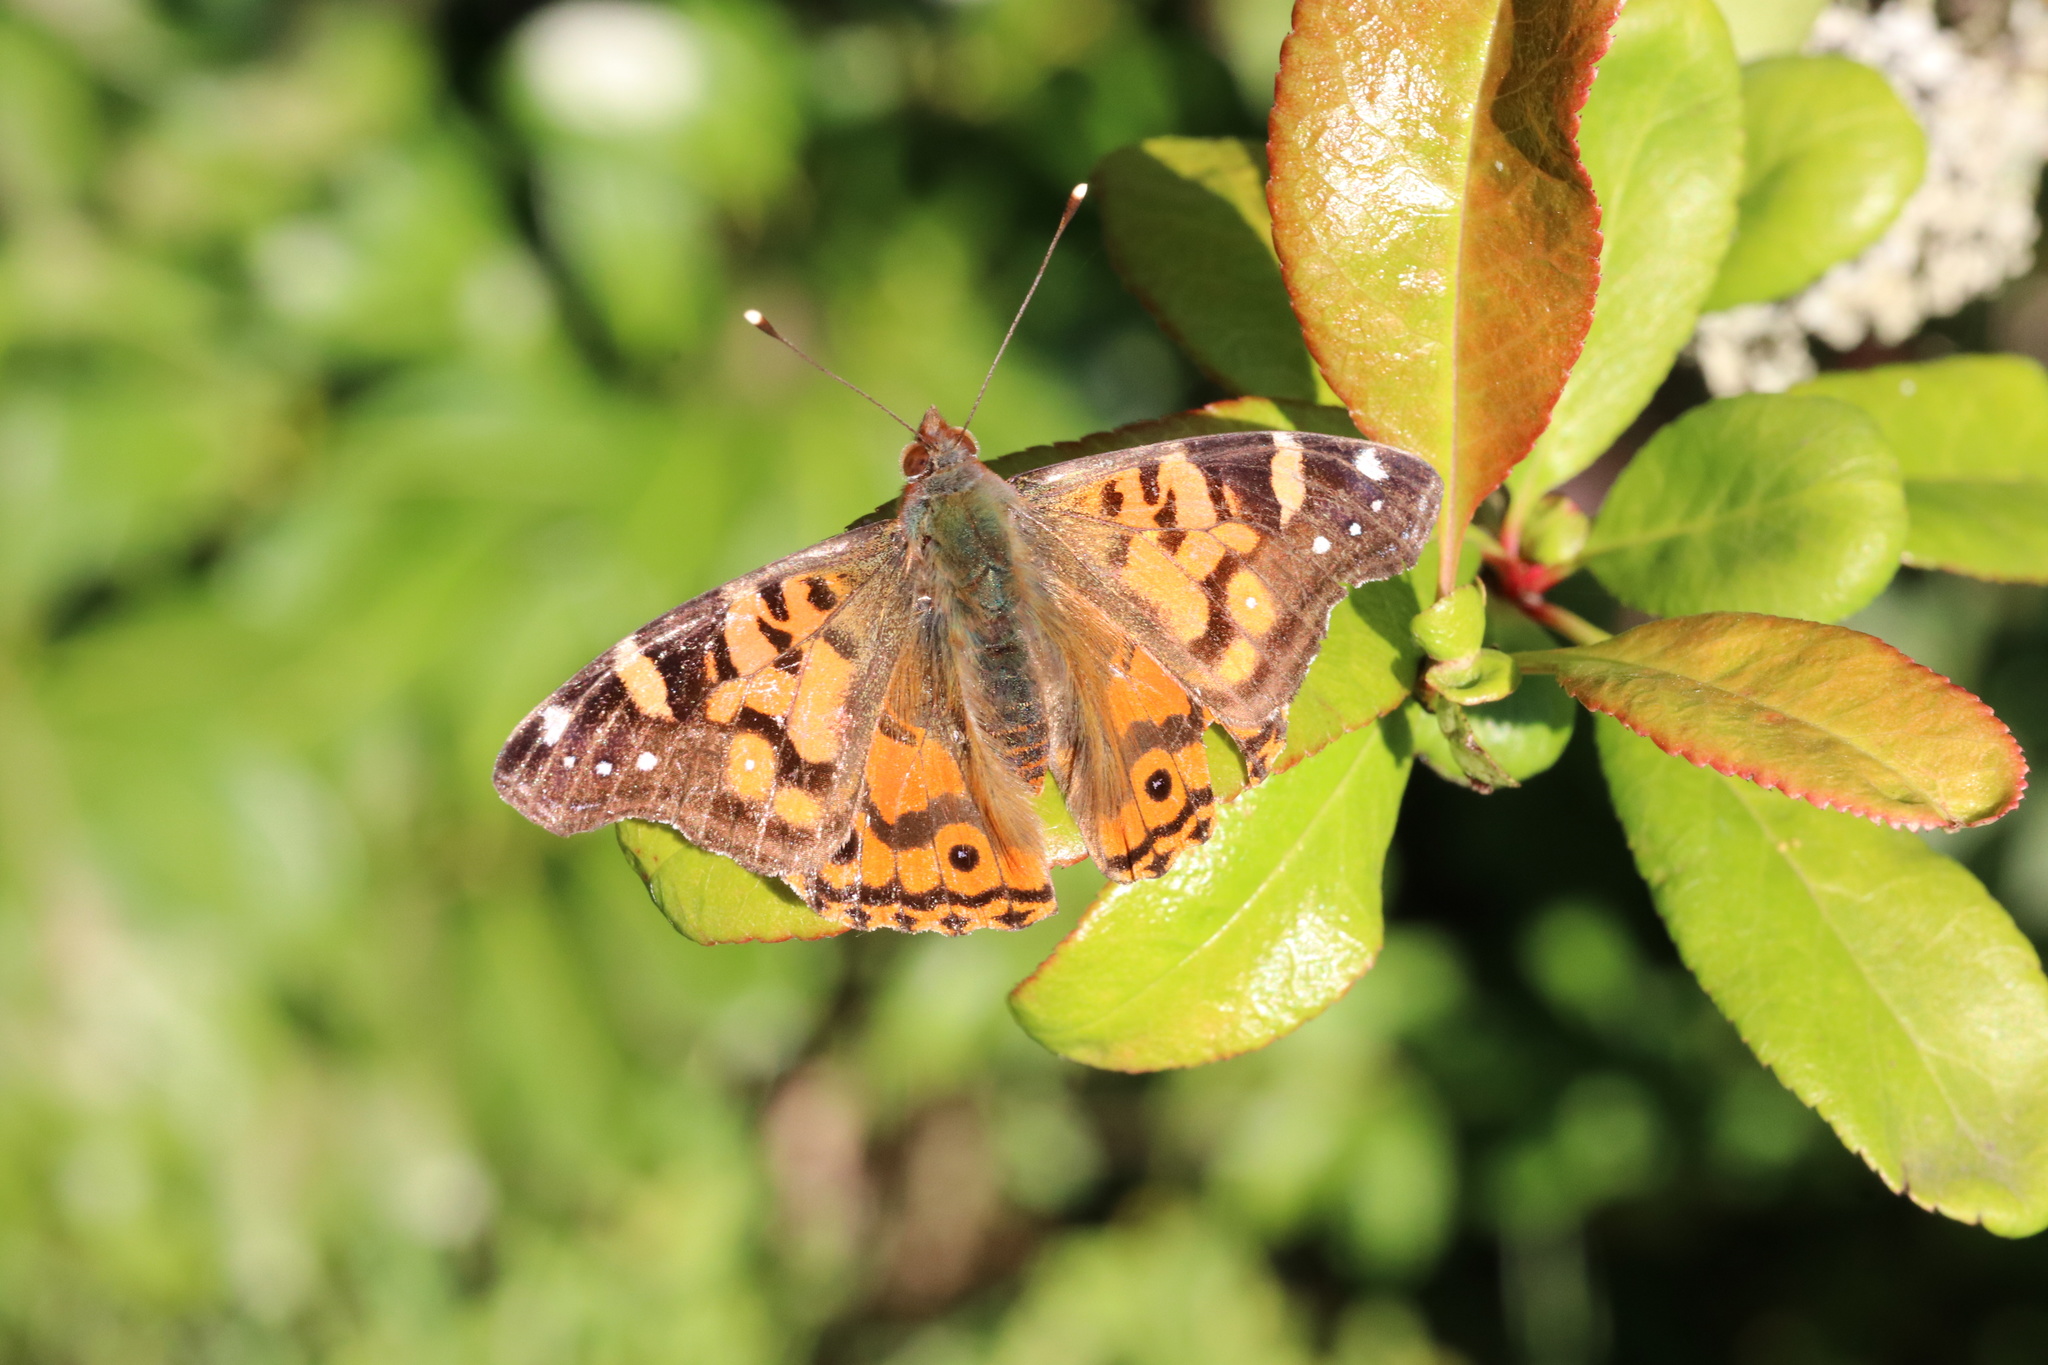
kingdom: Animalia
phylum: Arthropoda
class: Insecta
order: Lepidoptera
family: Nymphalidae
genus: Vanessa
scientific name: Vanessa terpsichore
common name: Chilean lady
